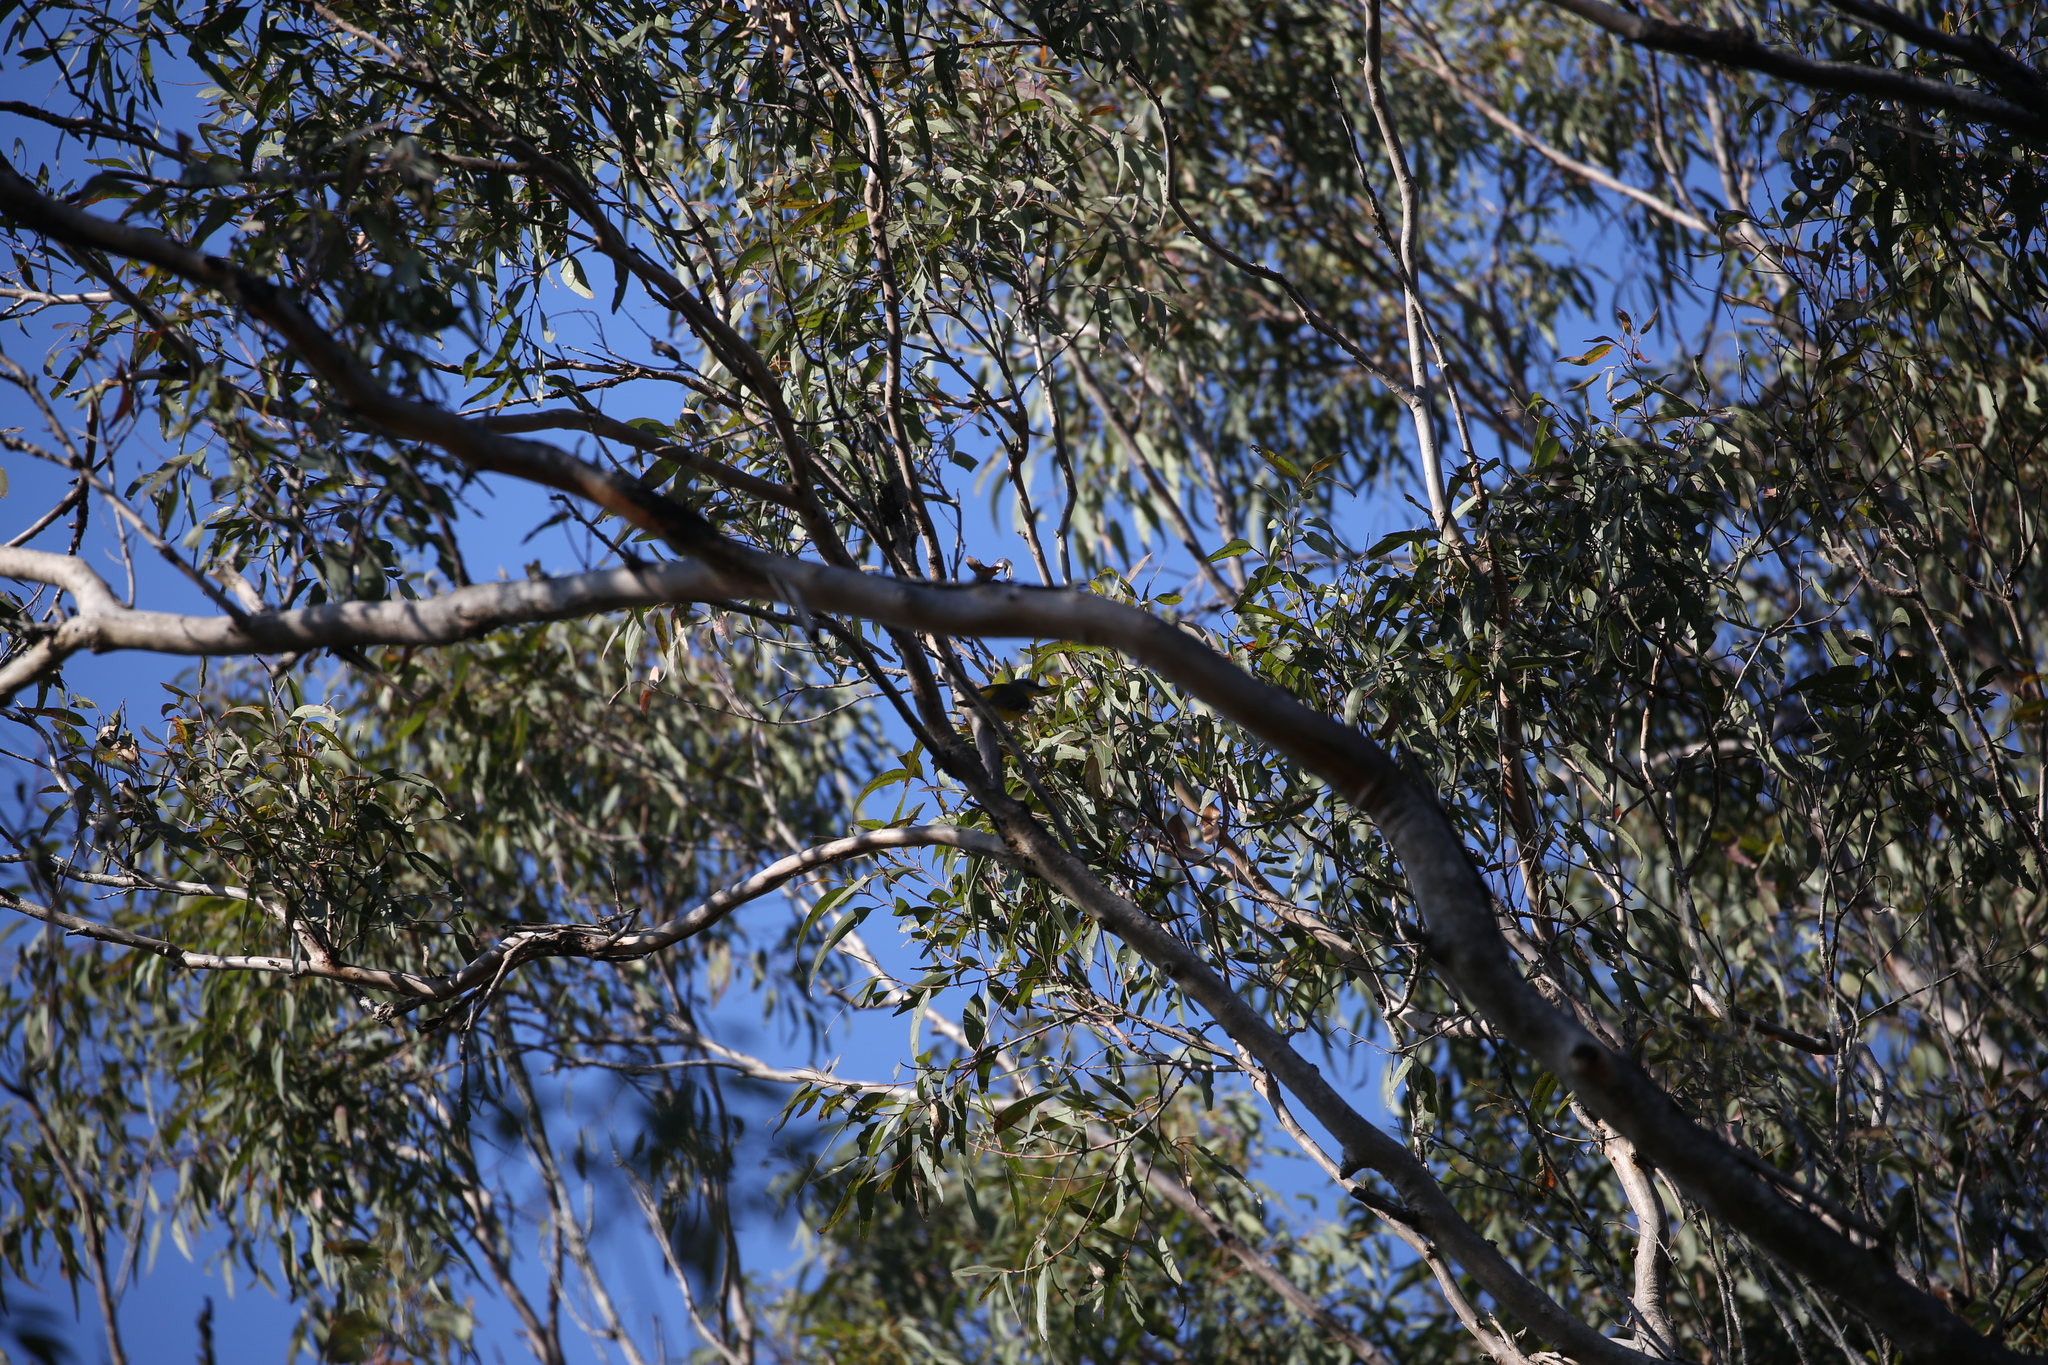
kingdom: Animalia
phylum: Chordata
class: Aves
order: Passeriformes
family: Petroicidae
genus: Eopsaltria
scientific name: Eopsaltria australis
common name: Eastern yellow robin
